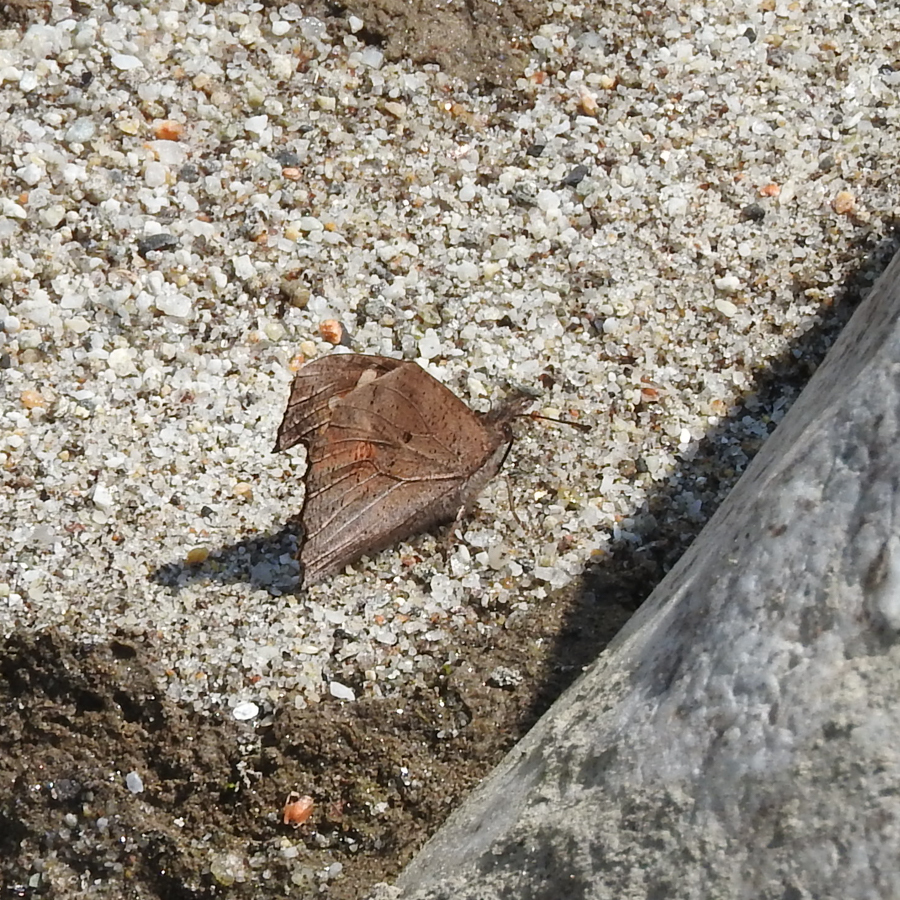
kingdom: Animalia
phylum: Arthropoda
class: Insecta
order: Lepidoptera
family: Nymphalidae
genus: Libythea
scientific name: Libythea lepita
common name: Common beak
